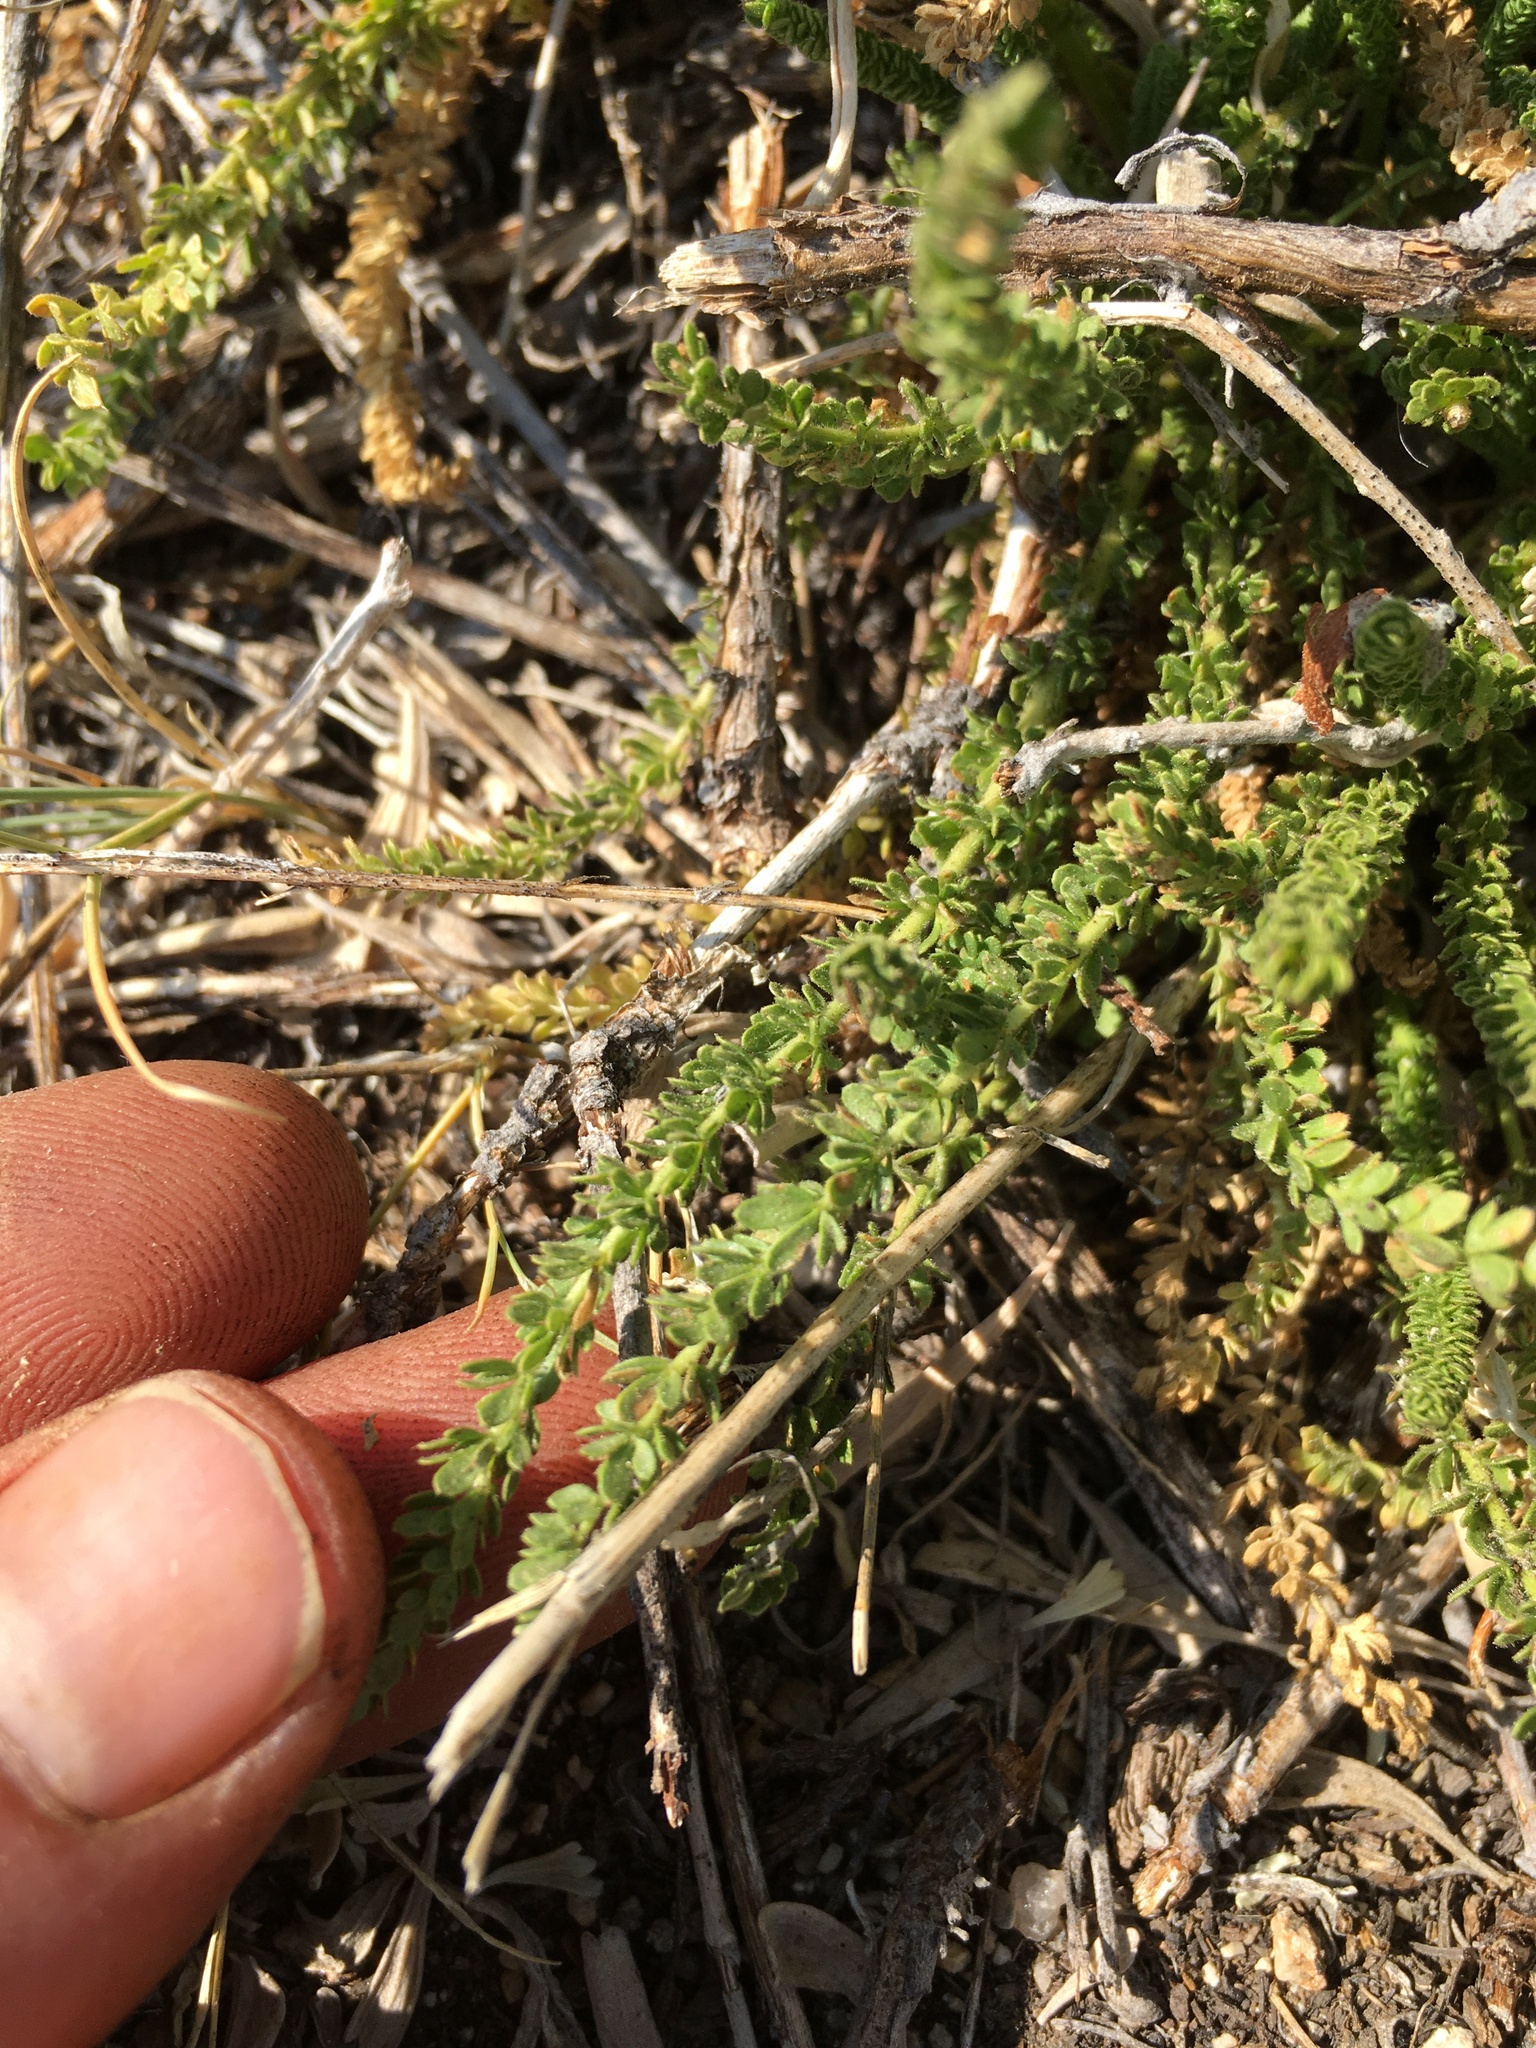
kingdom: Plantae
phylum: Tracheophyta
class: Magnoliopsida
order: Rosales
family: Rosaceae
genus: Potentilla
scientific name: Potentilla congdonis
